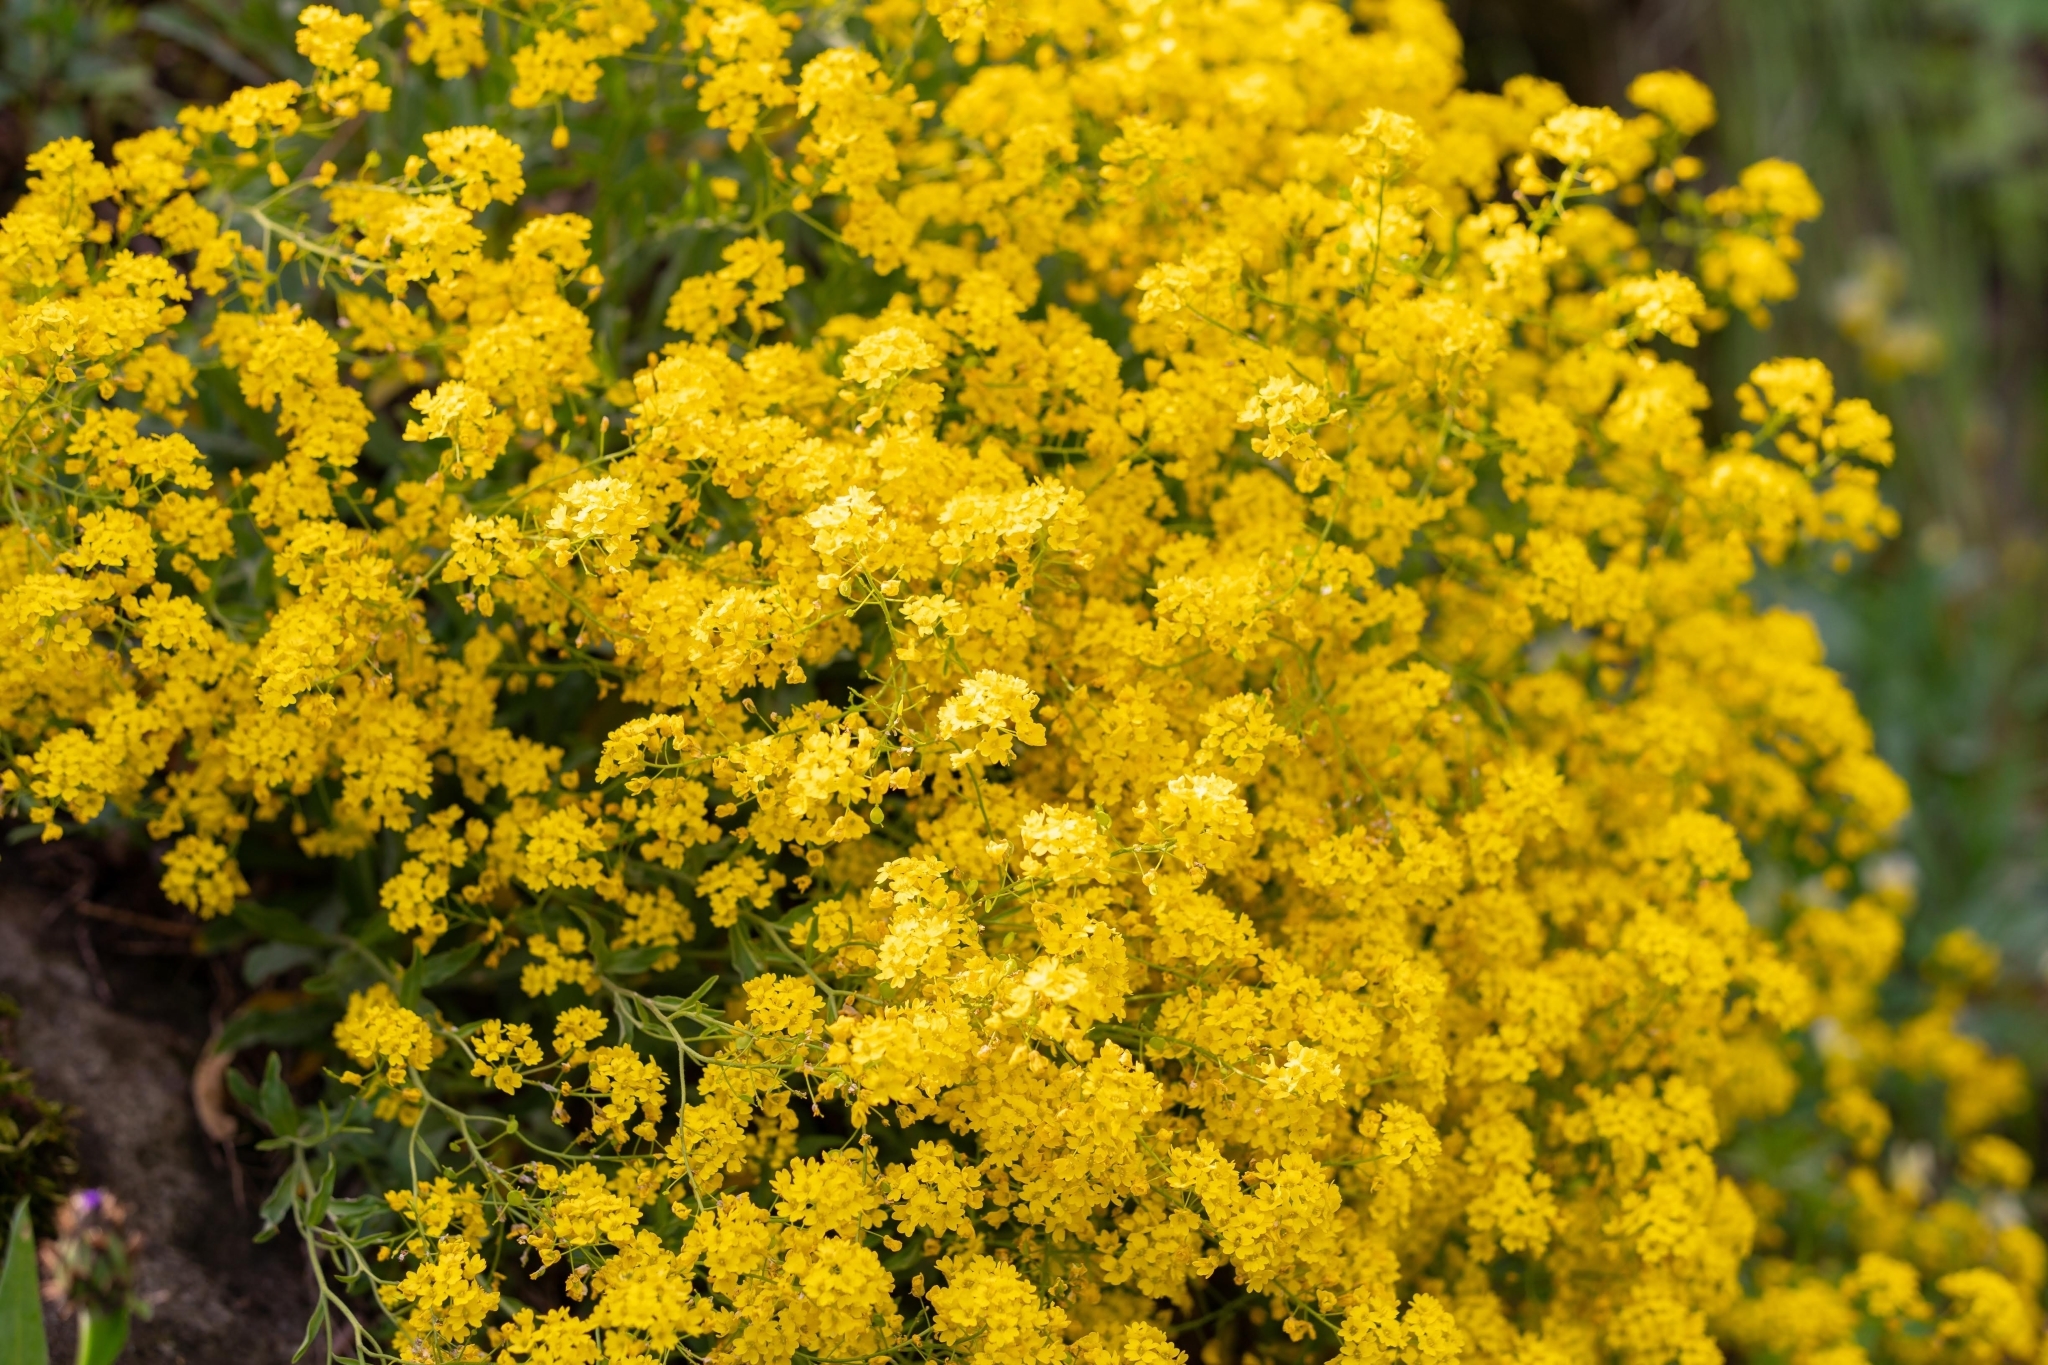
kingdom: Plantae
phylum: Tracheophyta
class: Magnoliopsida
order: Brassicales
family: Brassicaceae
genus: Aurinia
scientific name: Aurinia saxatilis
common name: Golden-tuft alyssum
